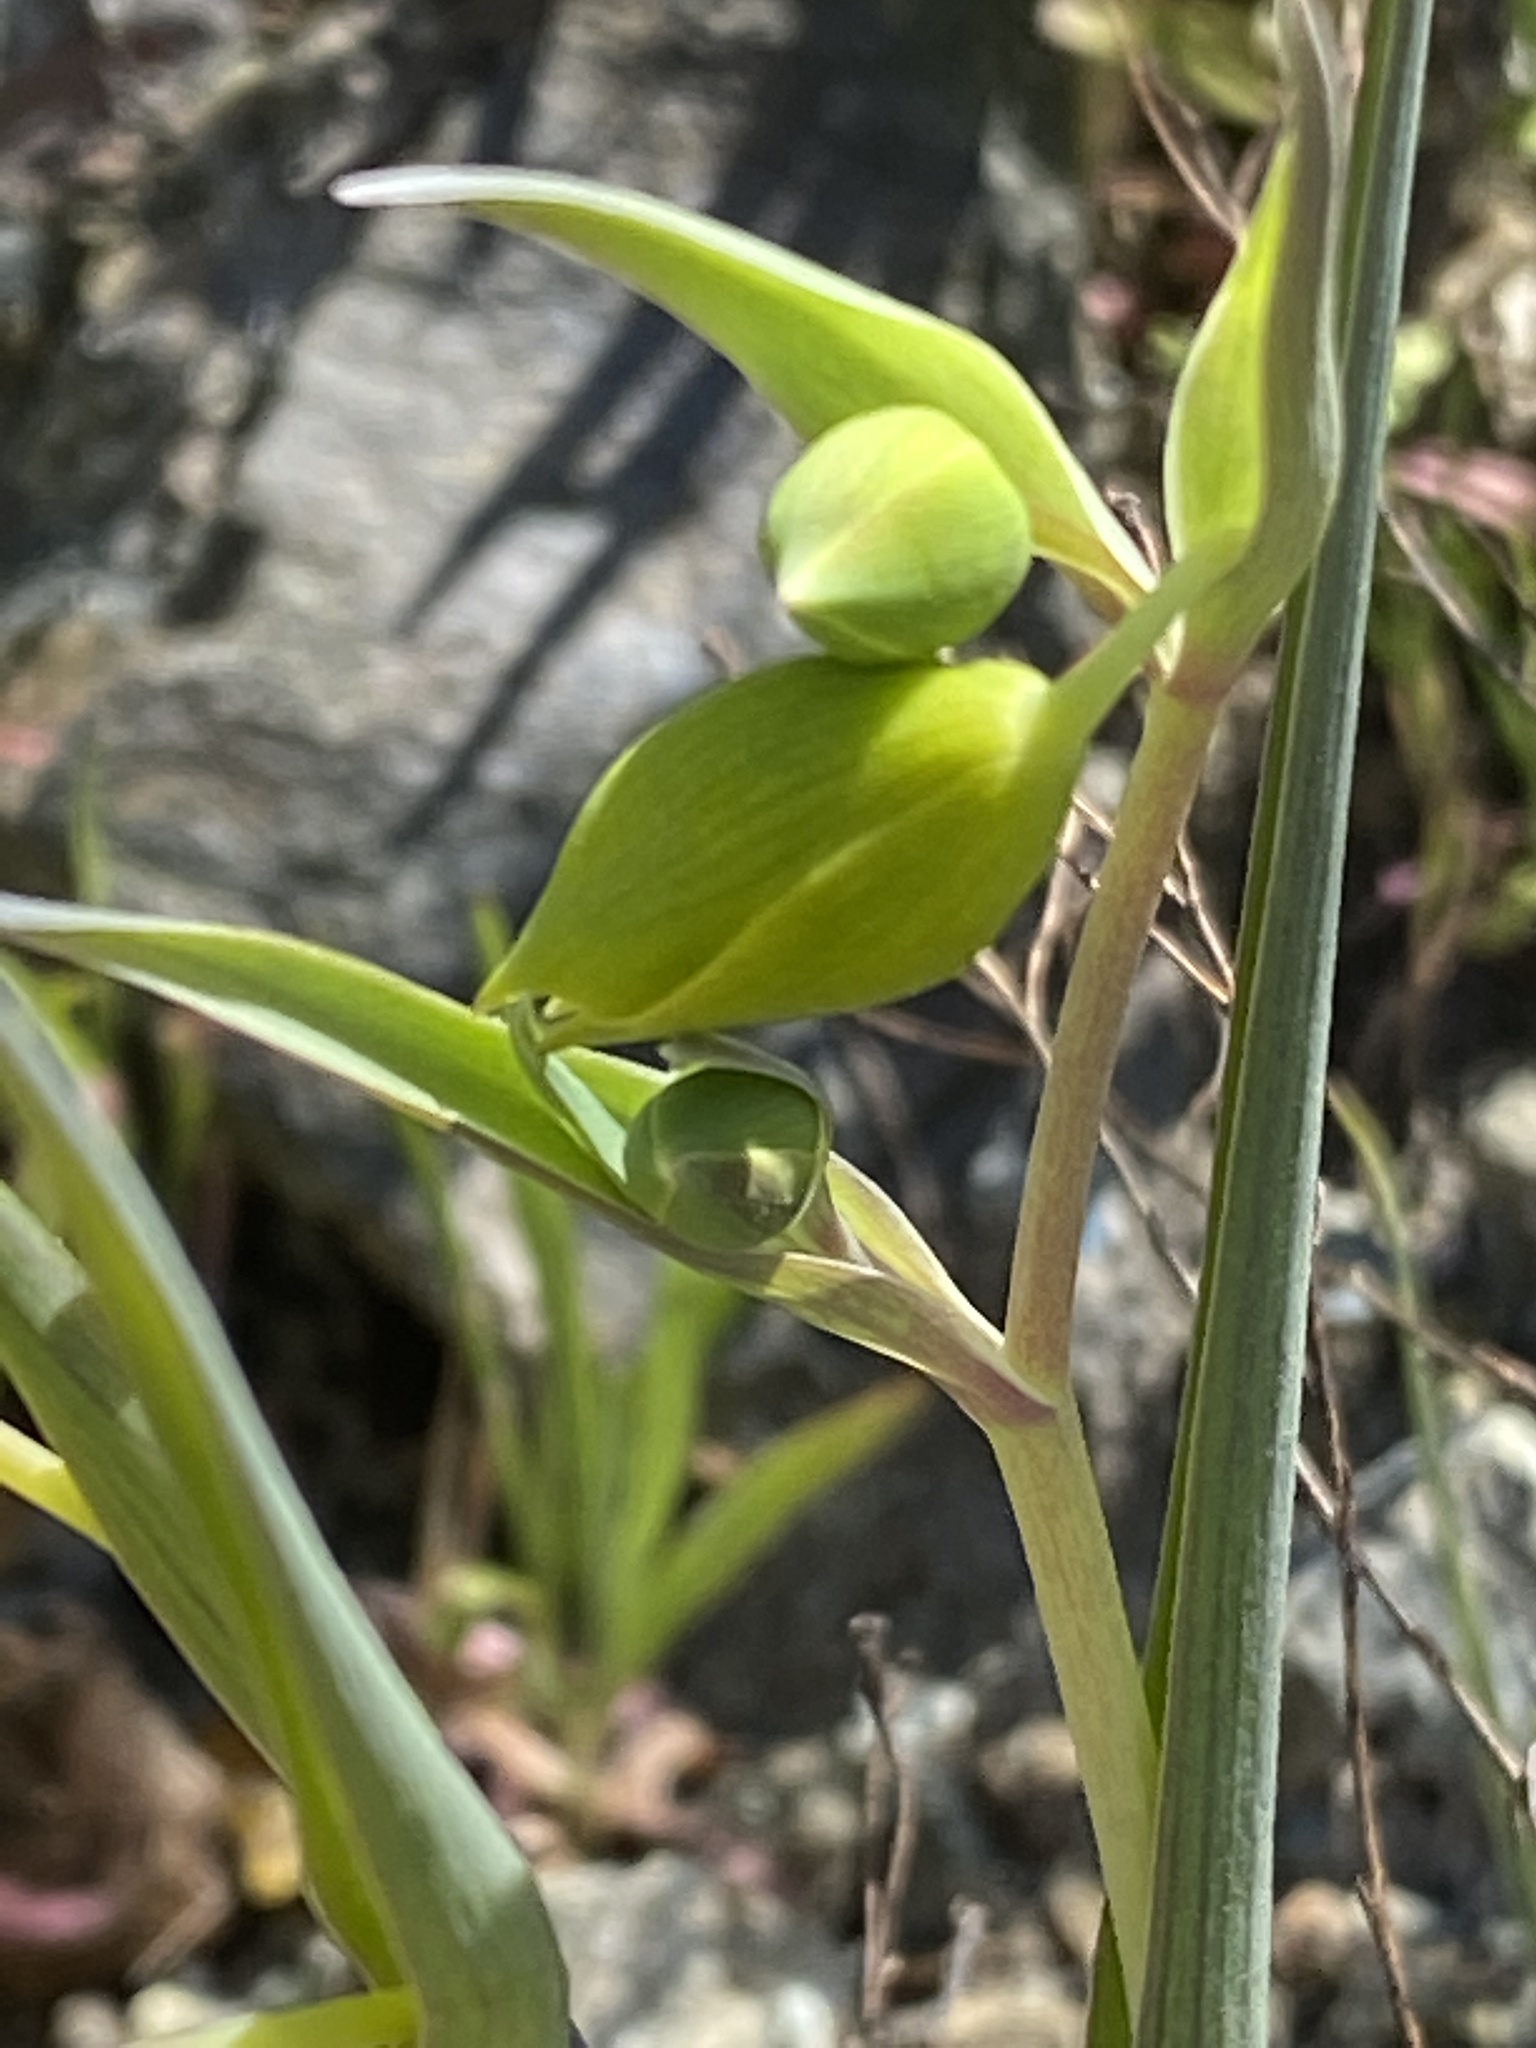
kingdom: Plantae
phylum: Tracheophyta
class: Liliopsida
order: Liliales
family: Liliaceae
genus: Calochortus
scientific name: Calochortus amabilis
